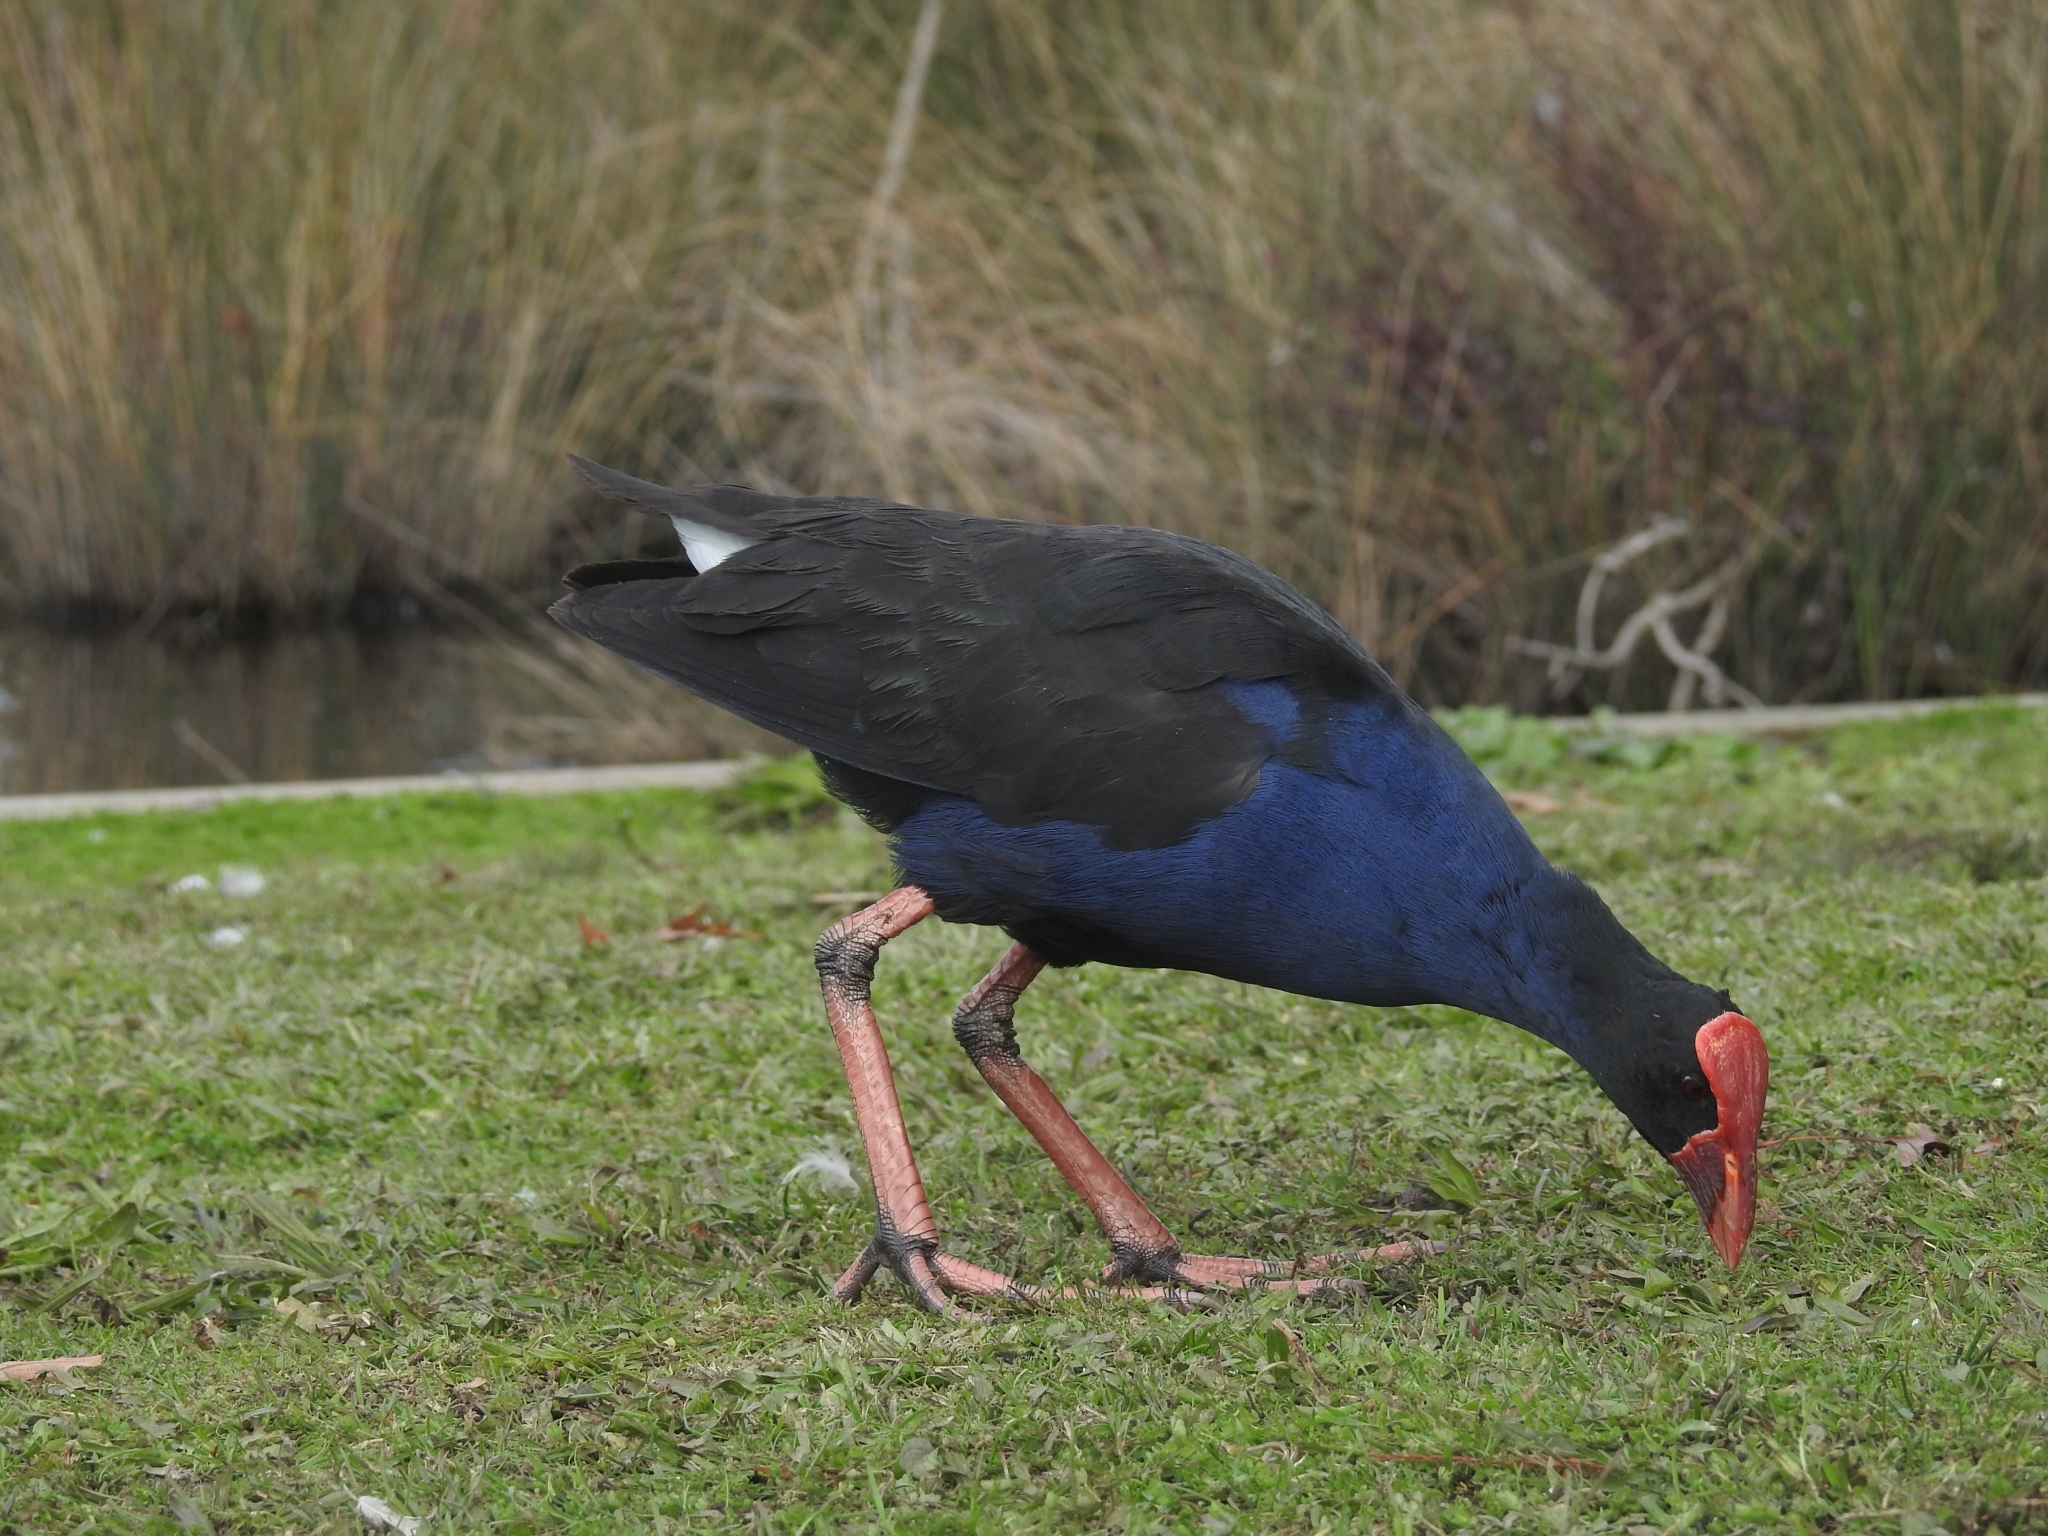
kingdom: Animalia
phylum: Chordata
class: Aves
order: Gruiformes
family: Rallidae
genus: Porphyrio
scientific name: Porphyrio melanotus
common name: Australasian swamphen
